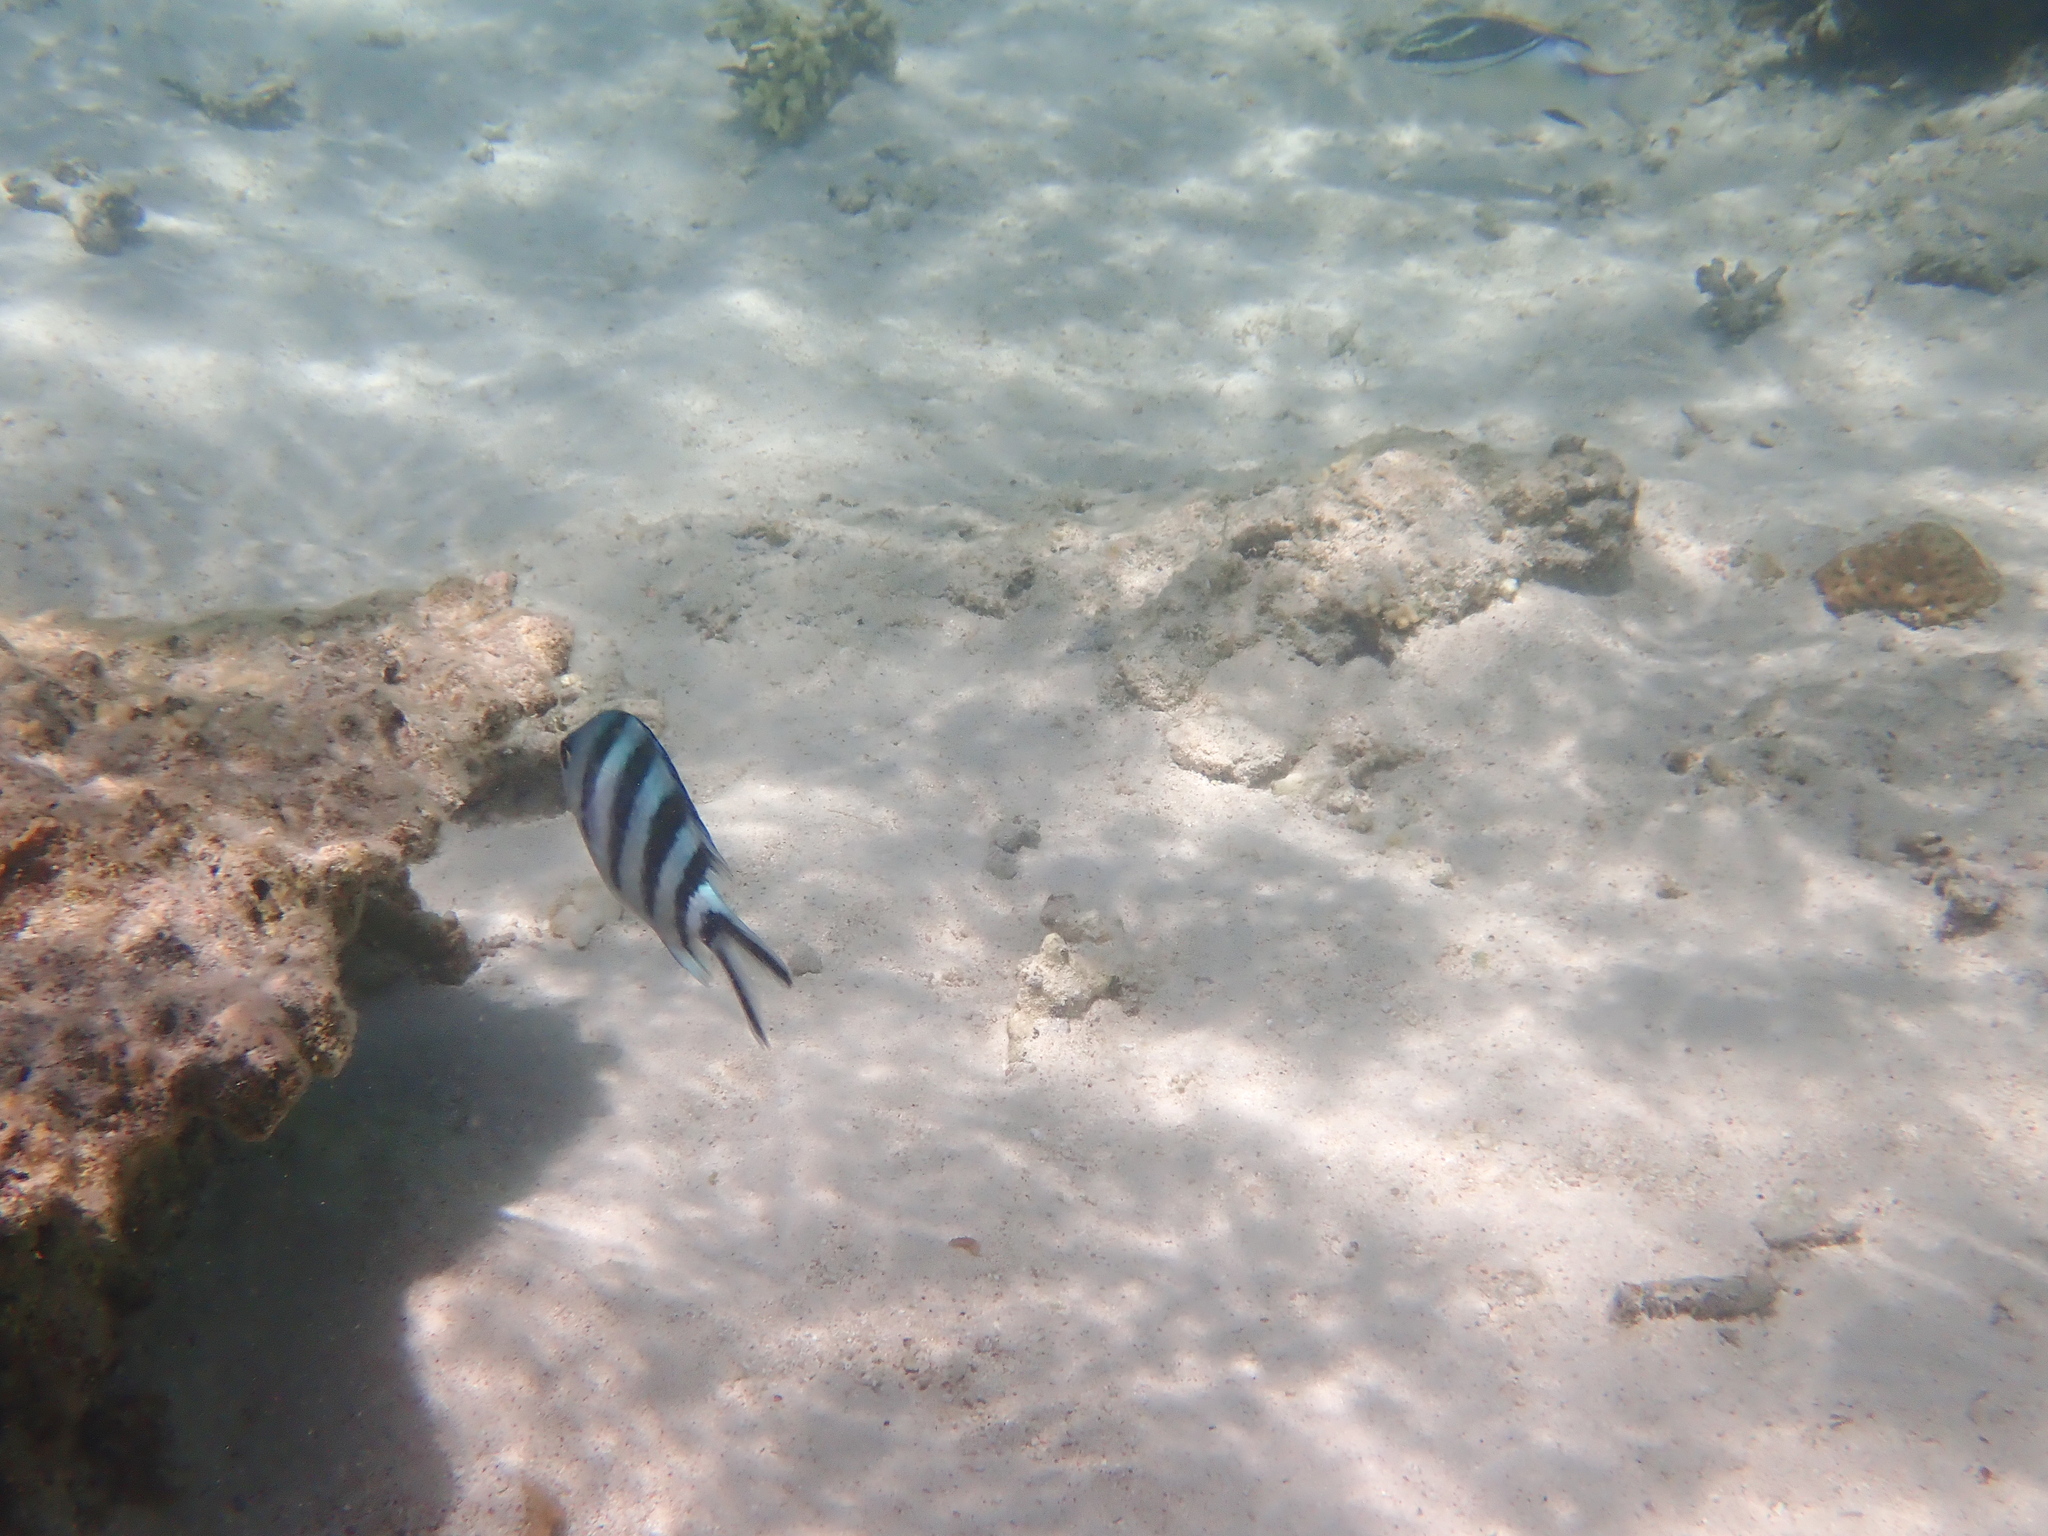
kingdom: Animalia
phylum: Chordata
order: Perciformes
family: Pomacentridae
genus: Abudefduf
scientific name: Abudefduf sexfasciatus
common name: Scissortail sergeant
